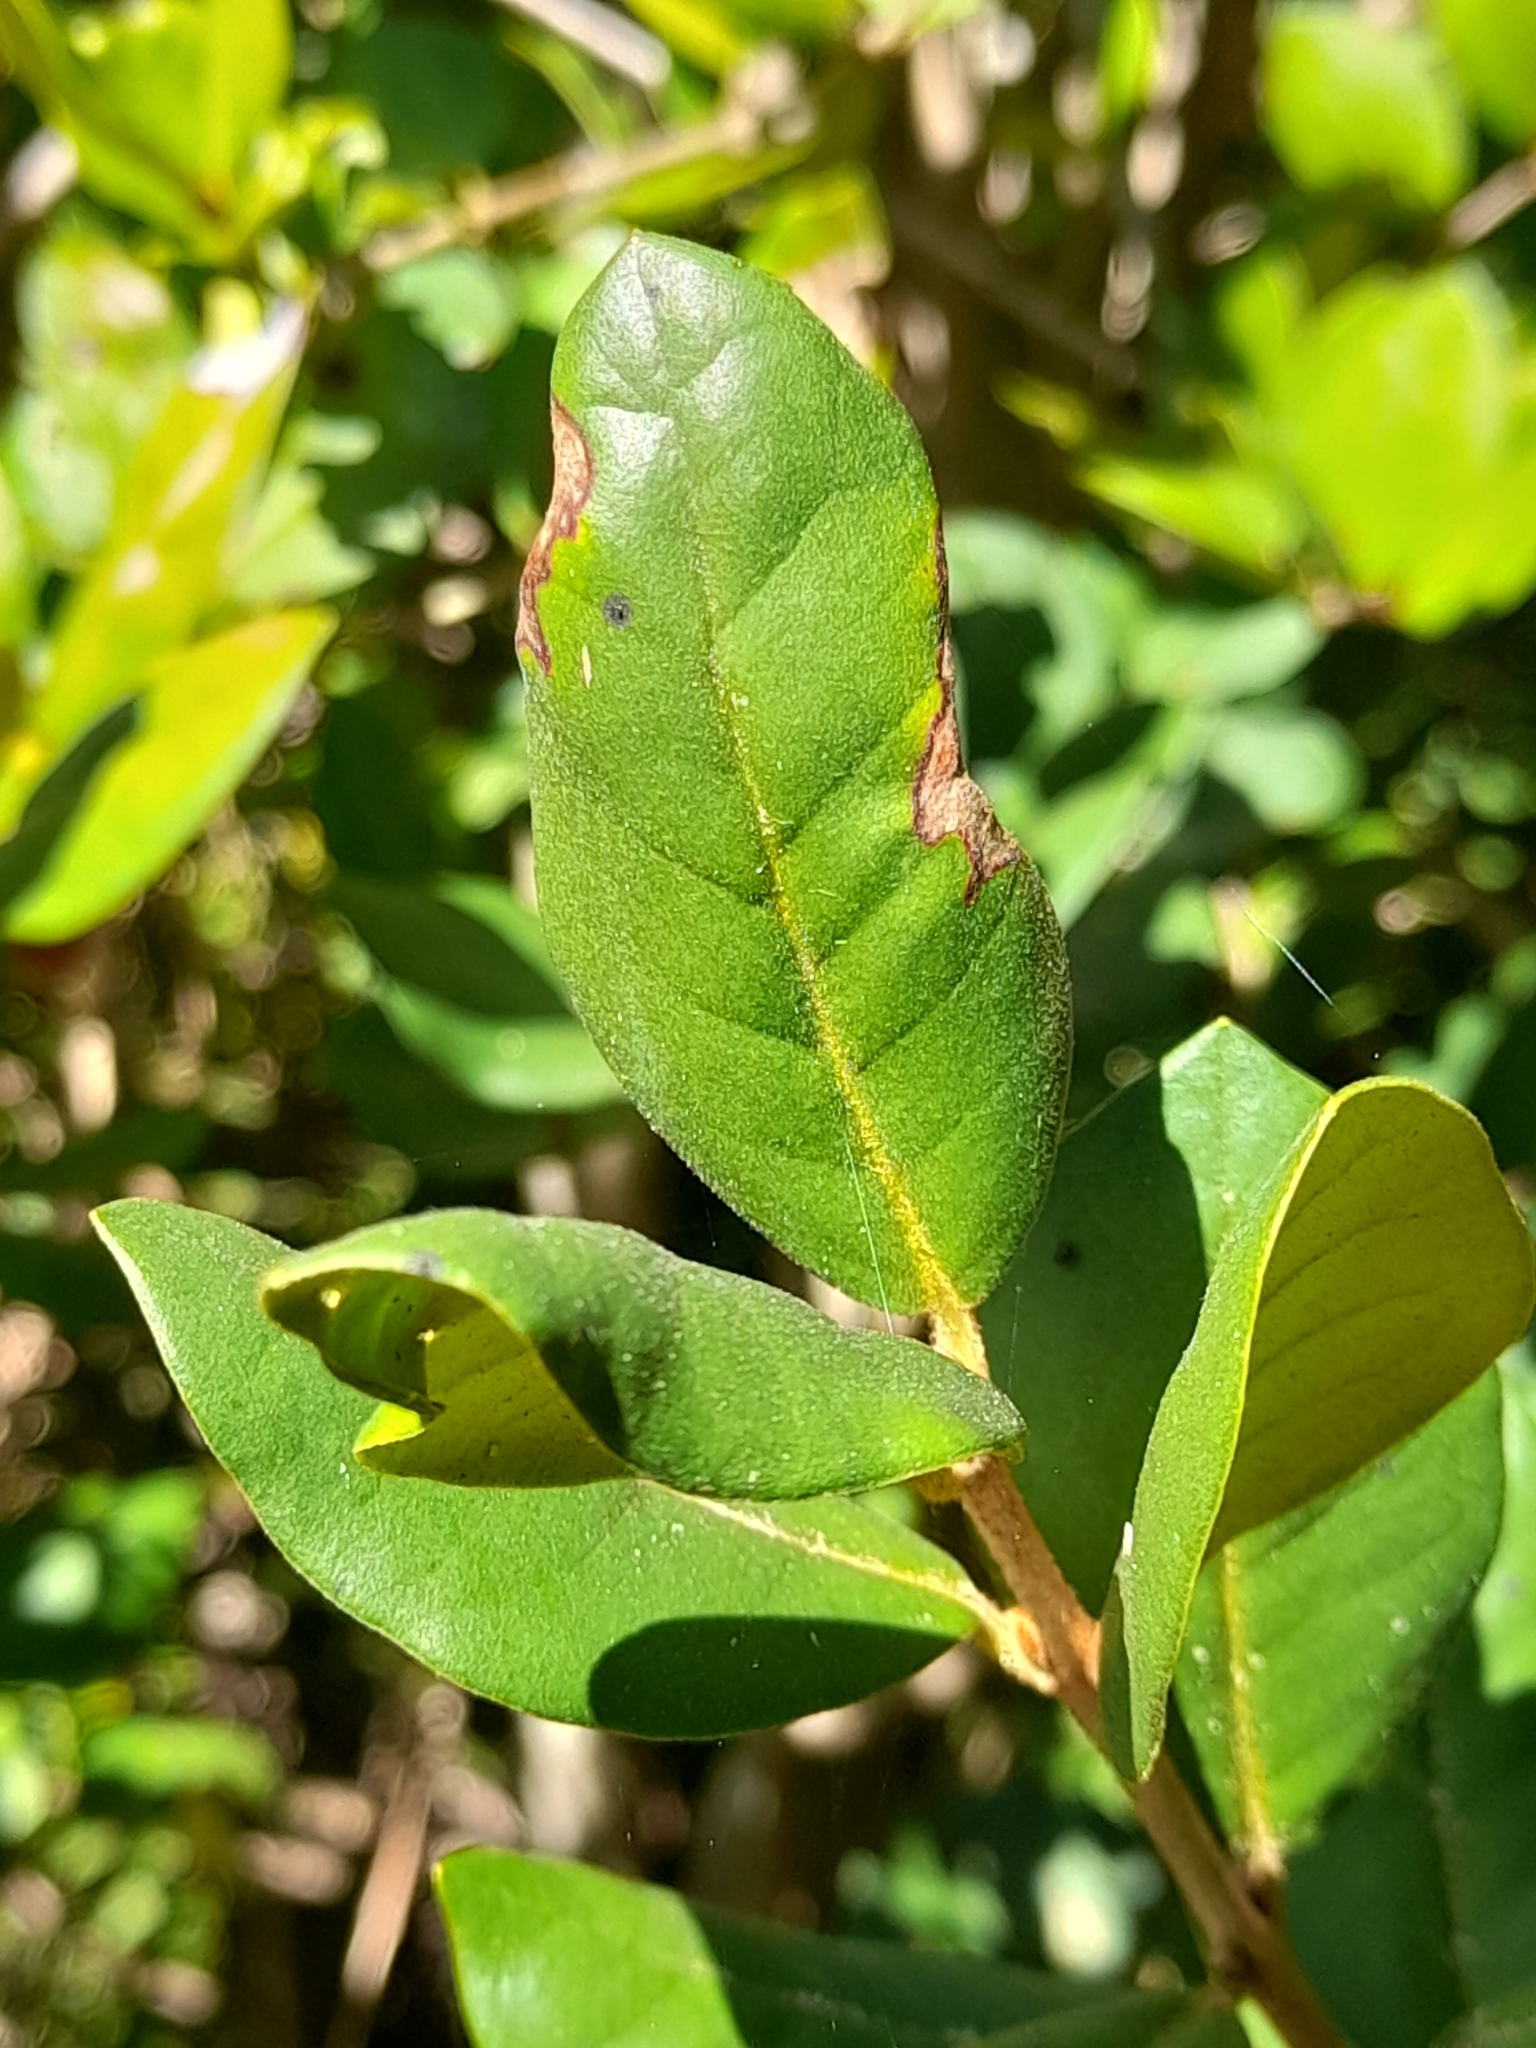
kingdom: Plantae
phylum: Tracheophyta
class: Magnoliopsida
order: Myrtales
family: Myrtaceae
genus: Myrceugenia
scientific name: Myrceugenia exsucca
